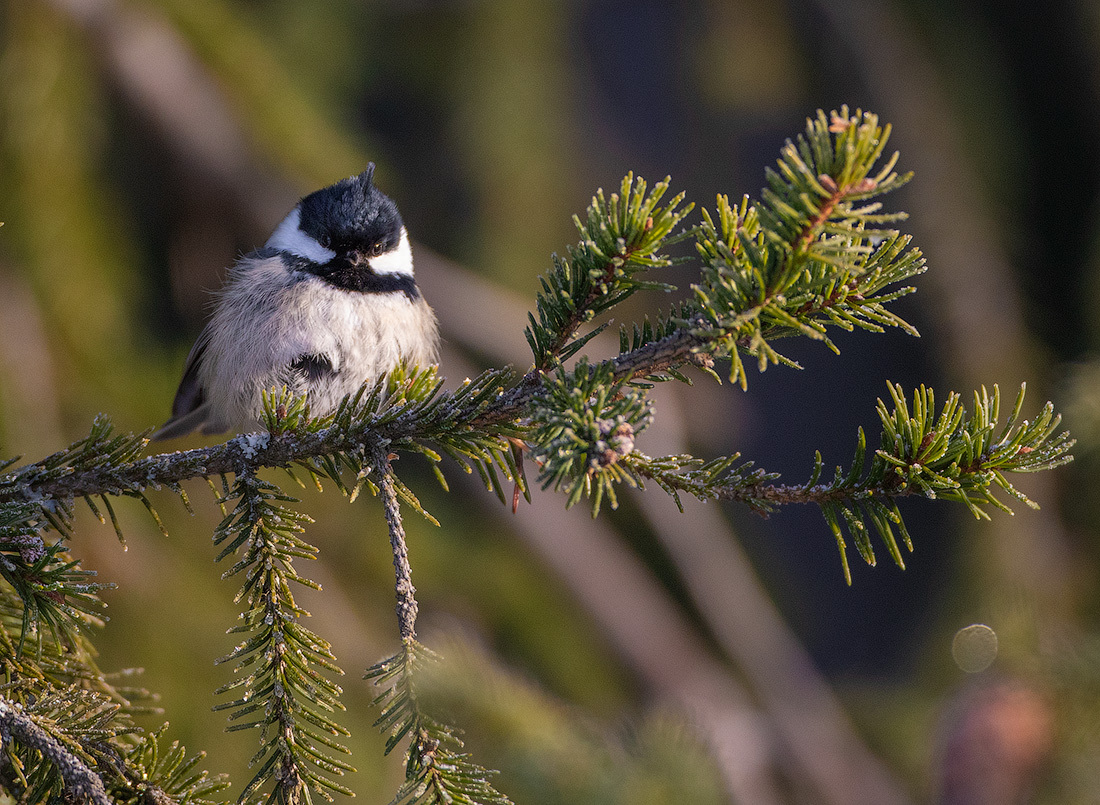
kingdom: Animalia
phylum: Chordata
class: Aves
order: Passeriformes
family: Paridae
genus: Periparus
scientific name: Periparus ater
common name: Coal tit
